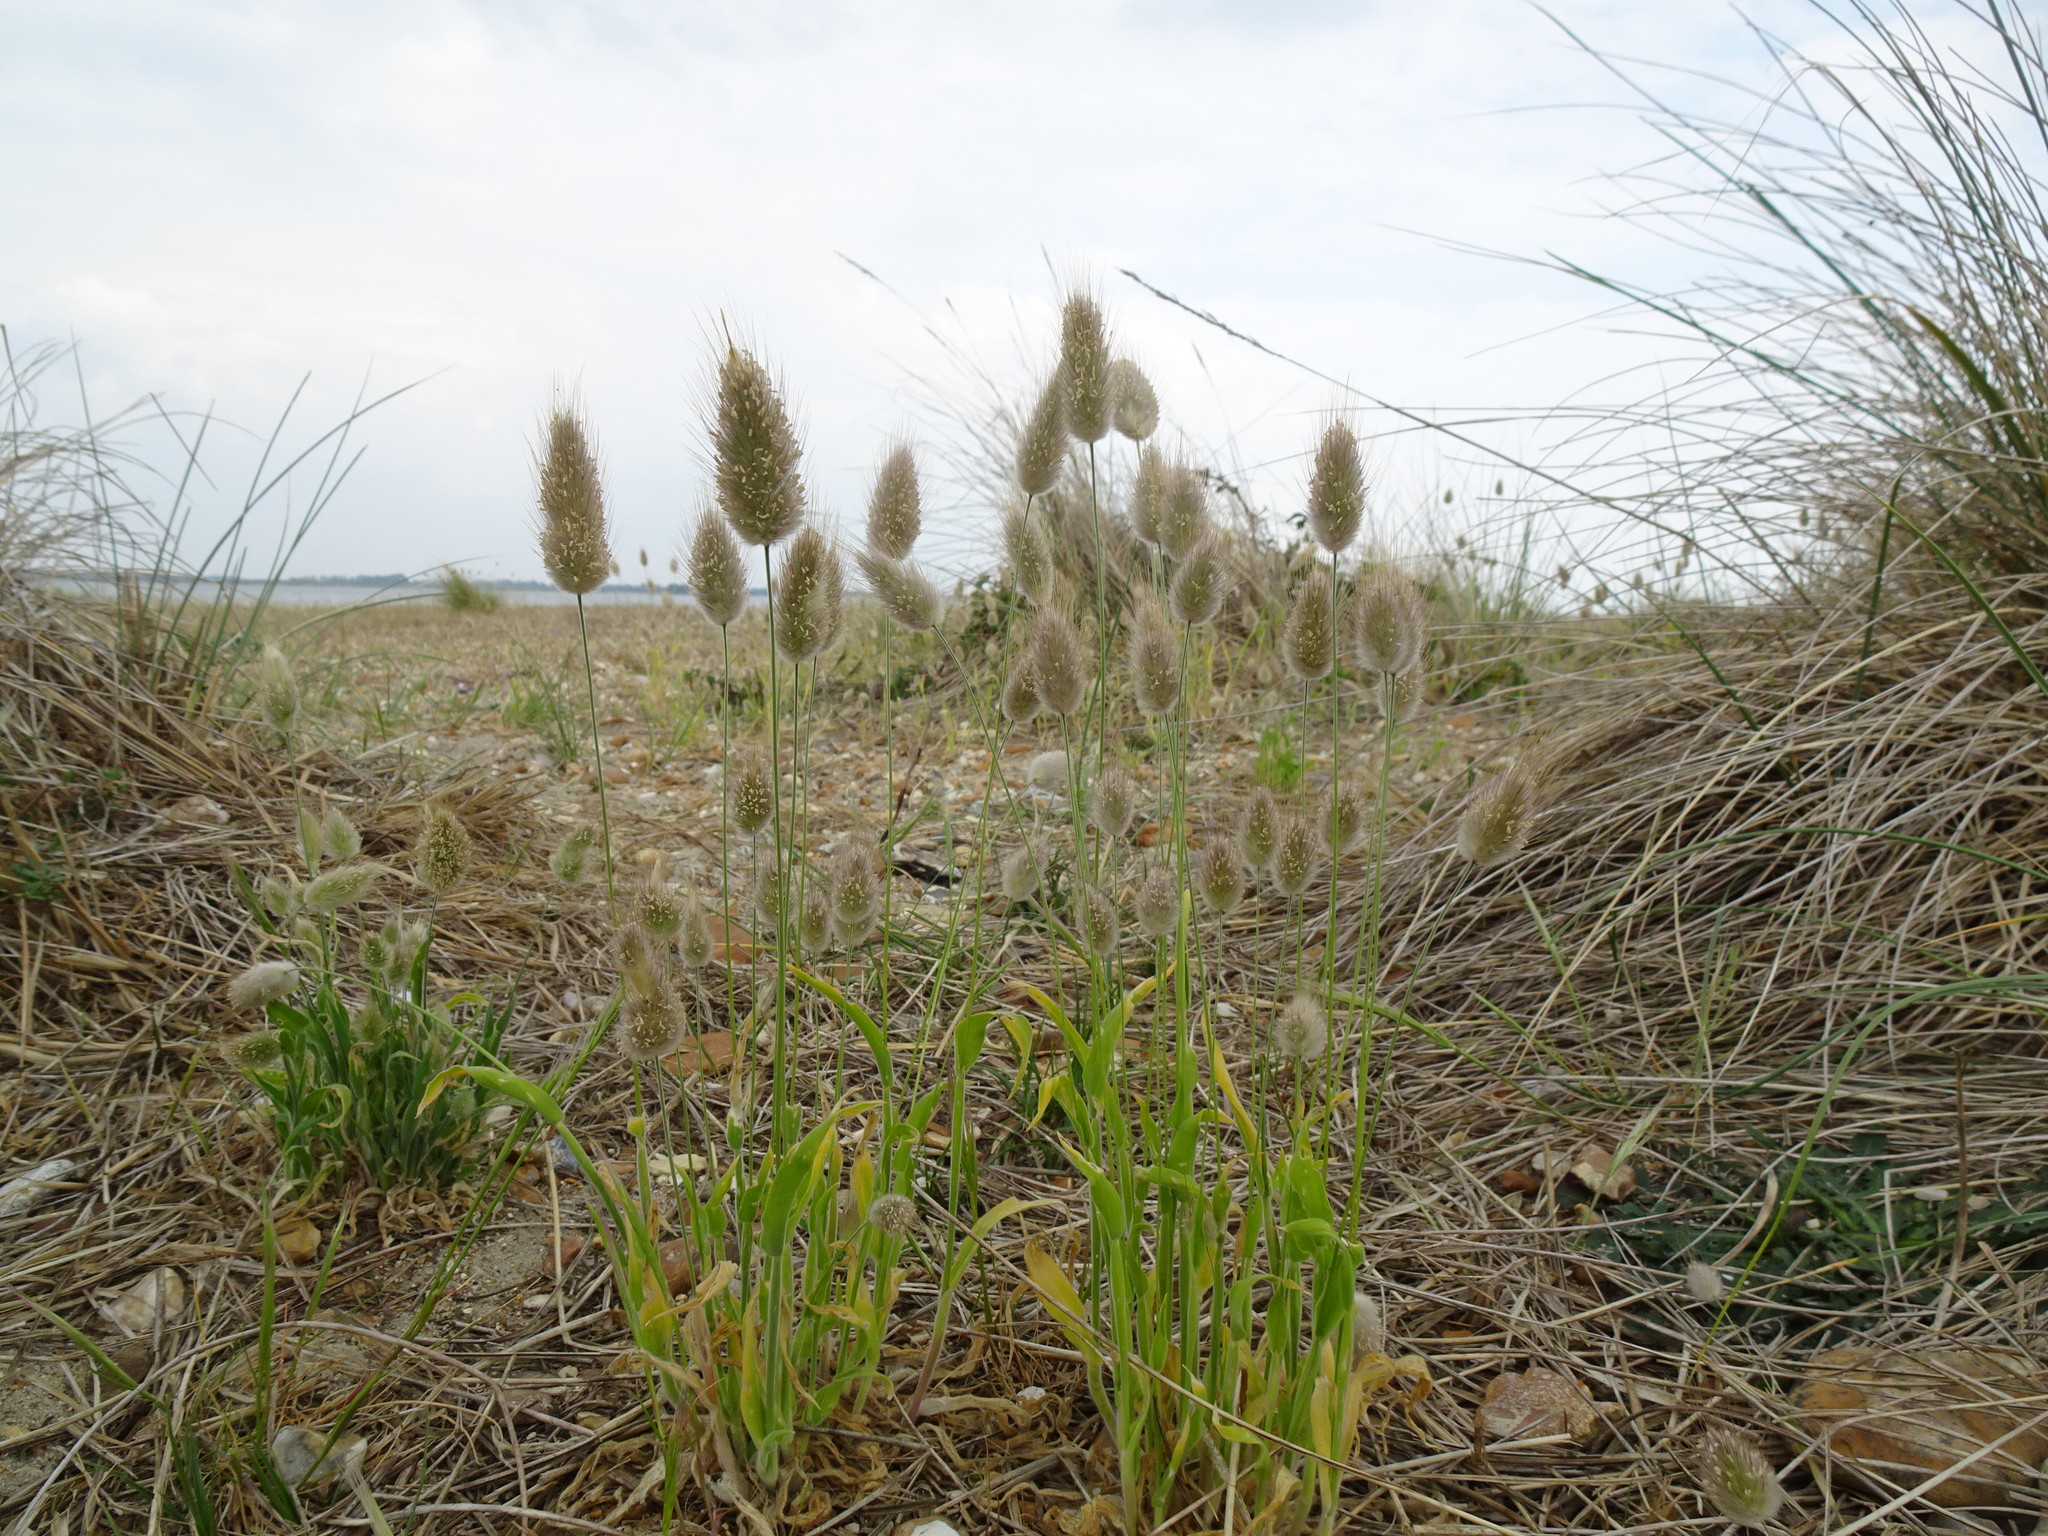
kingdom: Plantae
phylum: Tracheophyta
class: Liliopsida
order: Poales
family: Poaceae
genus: Lagurus
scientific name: Lagurus ovatus
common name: Hare's-tail
